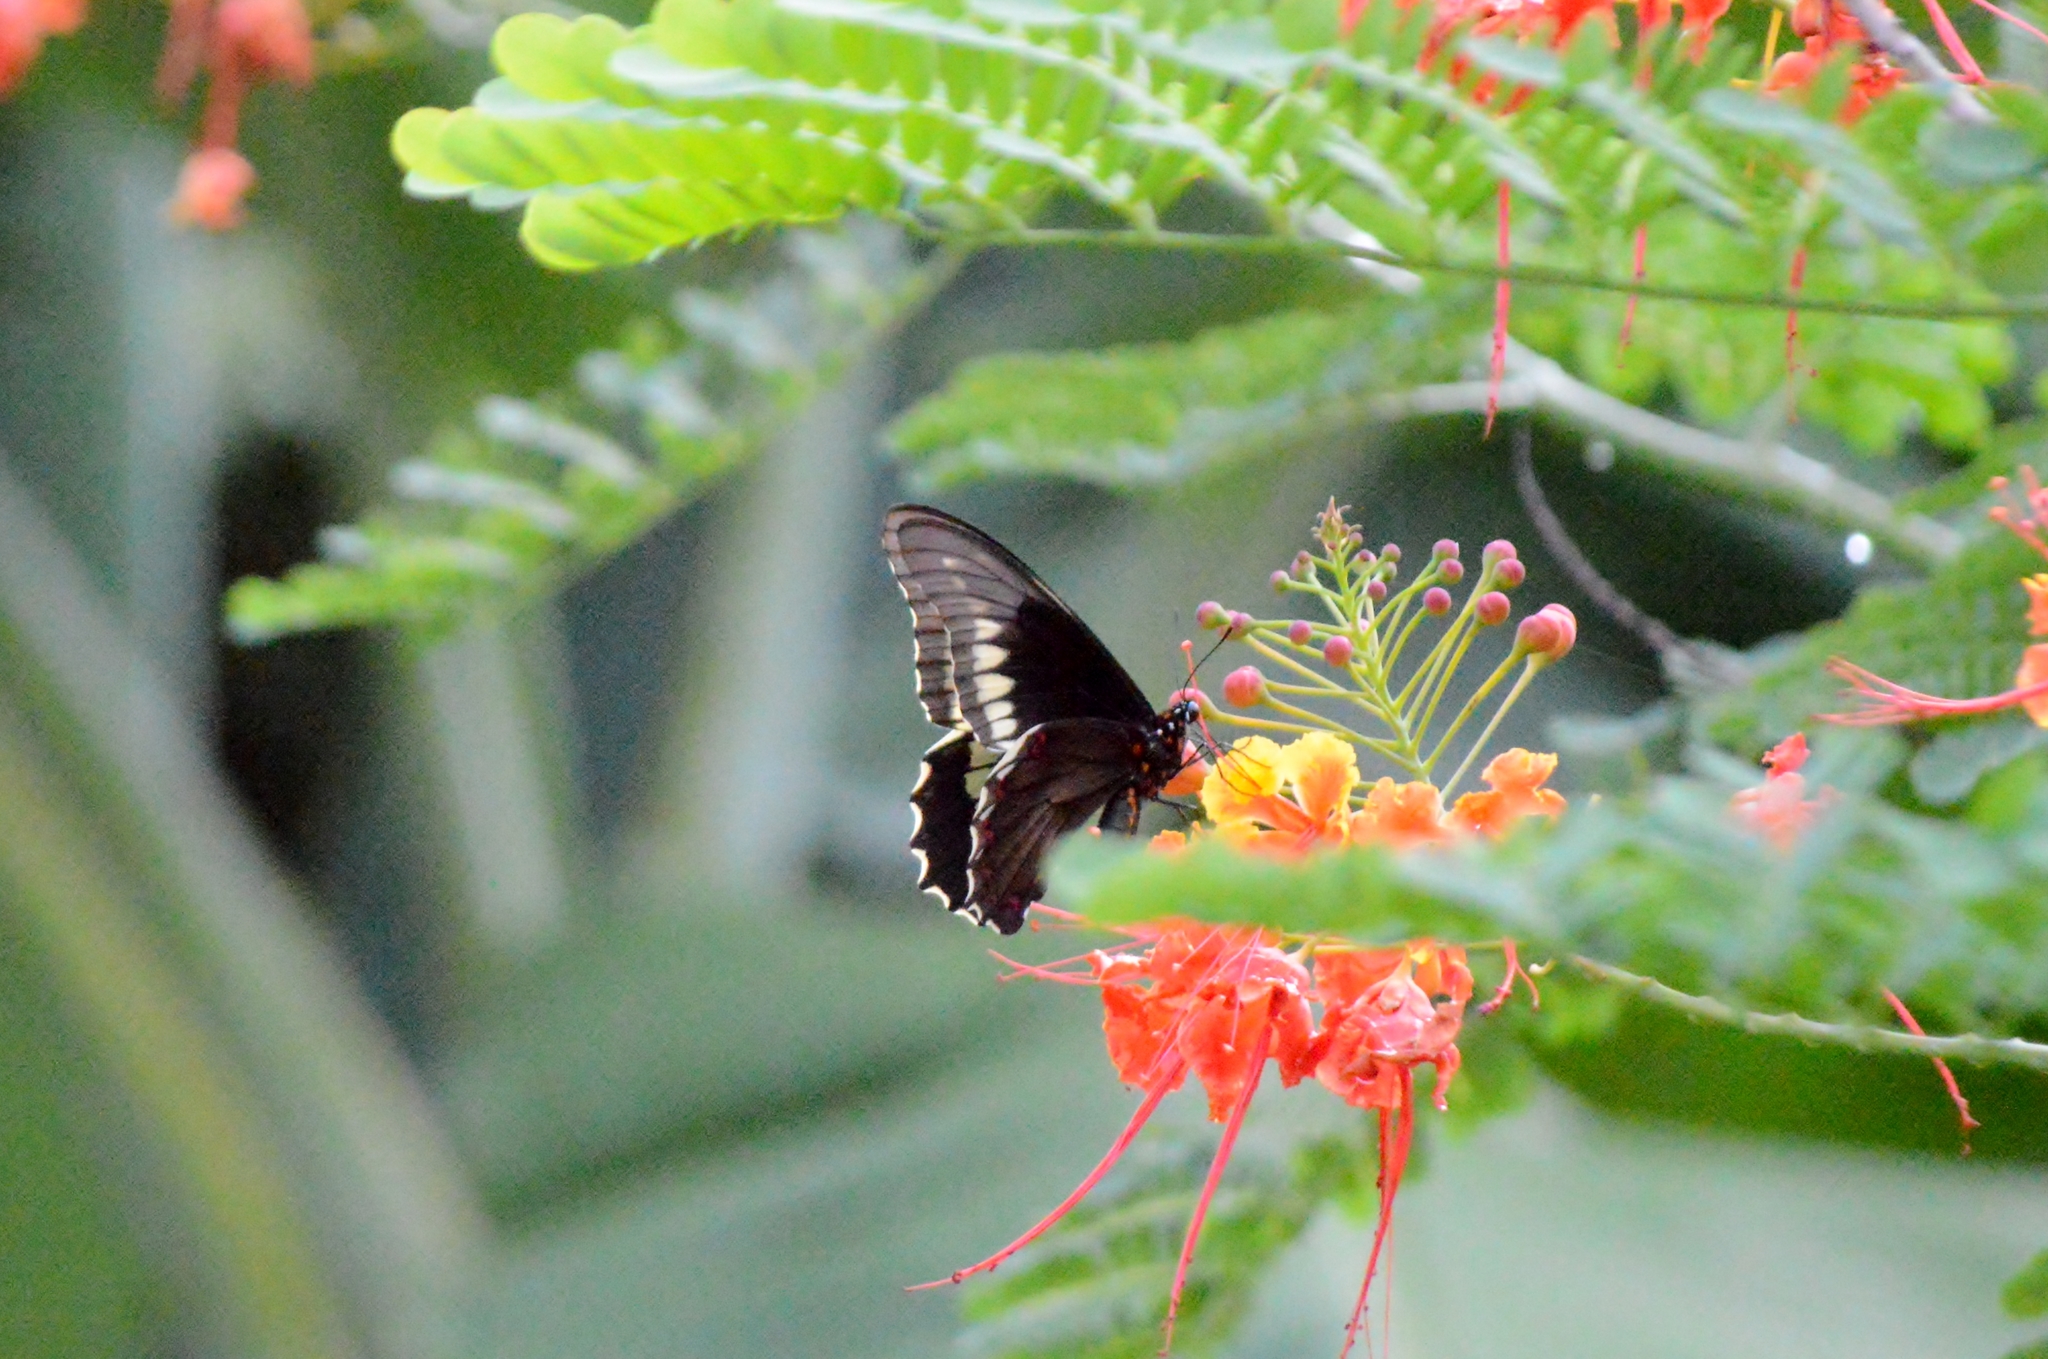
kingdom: Animalia
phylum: Arthropoda
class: Insecta
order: Lepidoptera
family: Papilionidae
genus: Battus
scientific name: Battus polydamas
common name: Polydamas swallowtail
